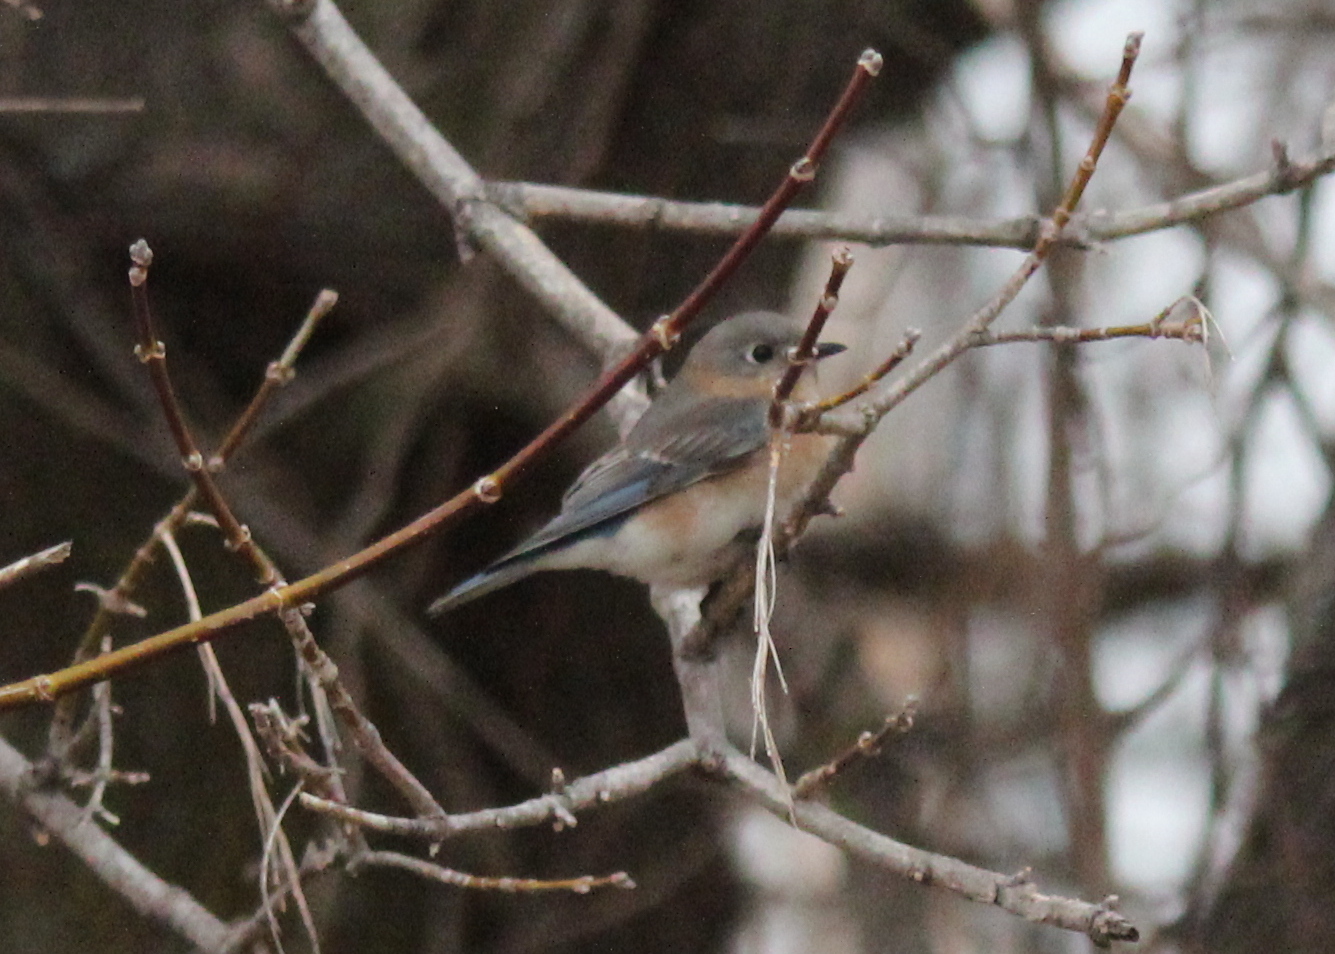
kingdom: Animalia
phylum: Chordata
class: Aves
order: Passeriformes
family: Turdidae
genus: Sialia
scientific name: Sialia sialis
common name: Eastern bluebird
